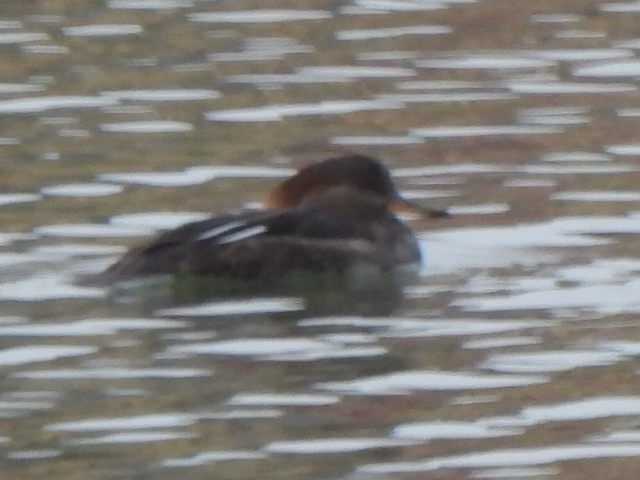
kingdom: Animalia
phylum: Chordata
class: Aves
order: Anseriformes
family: Anatidae
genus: Lophodytes
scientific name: Lophodytes cucullatus
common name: Hooded merganser
